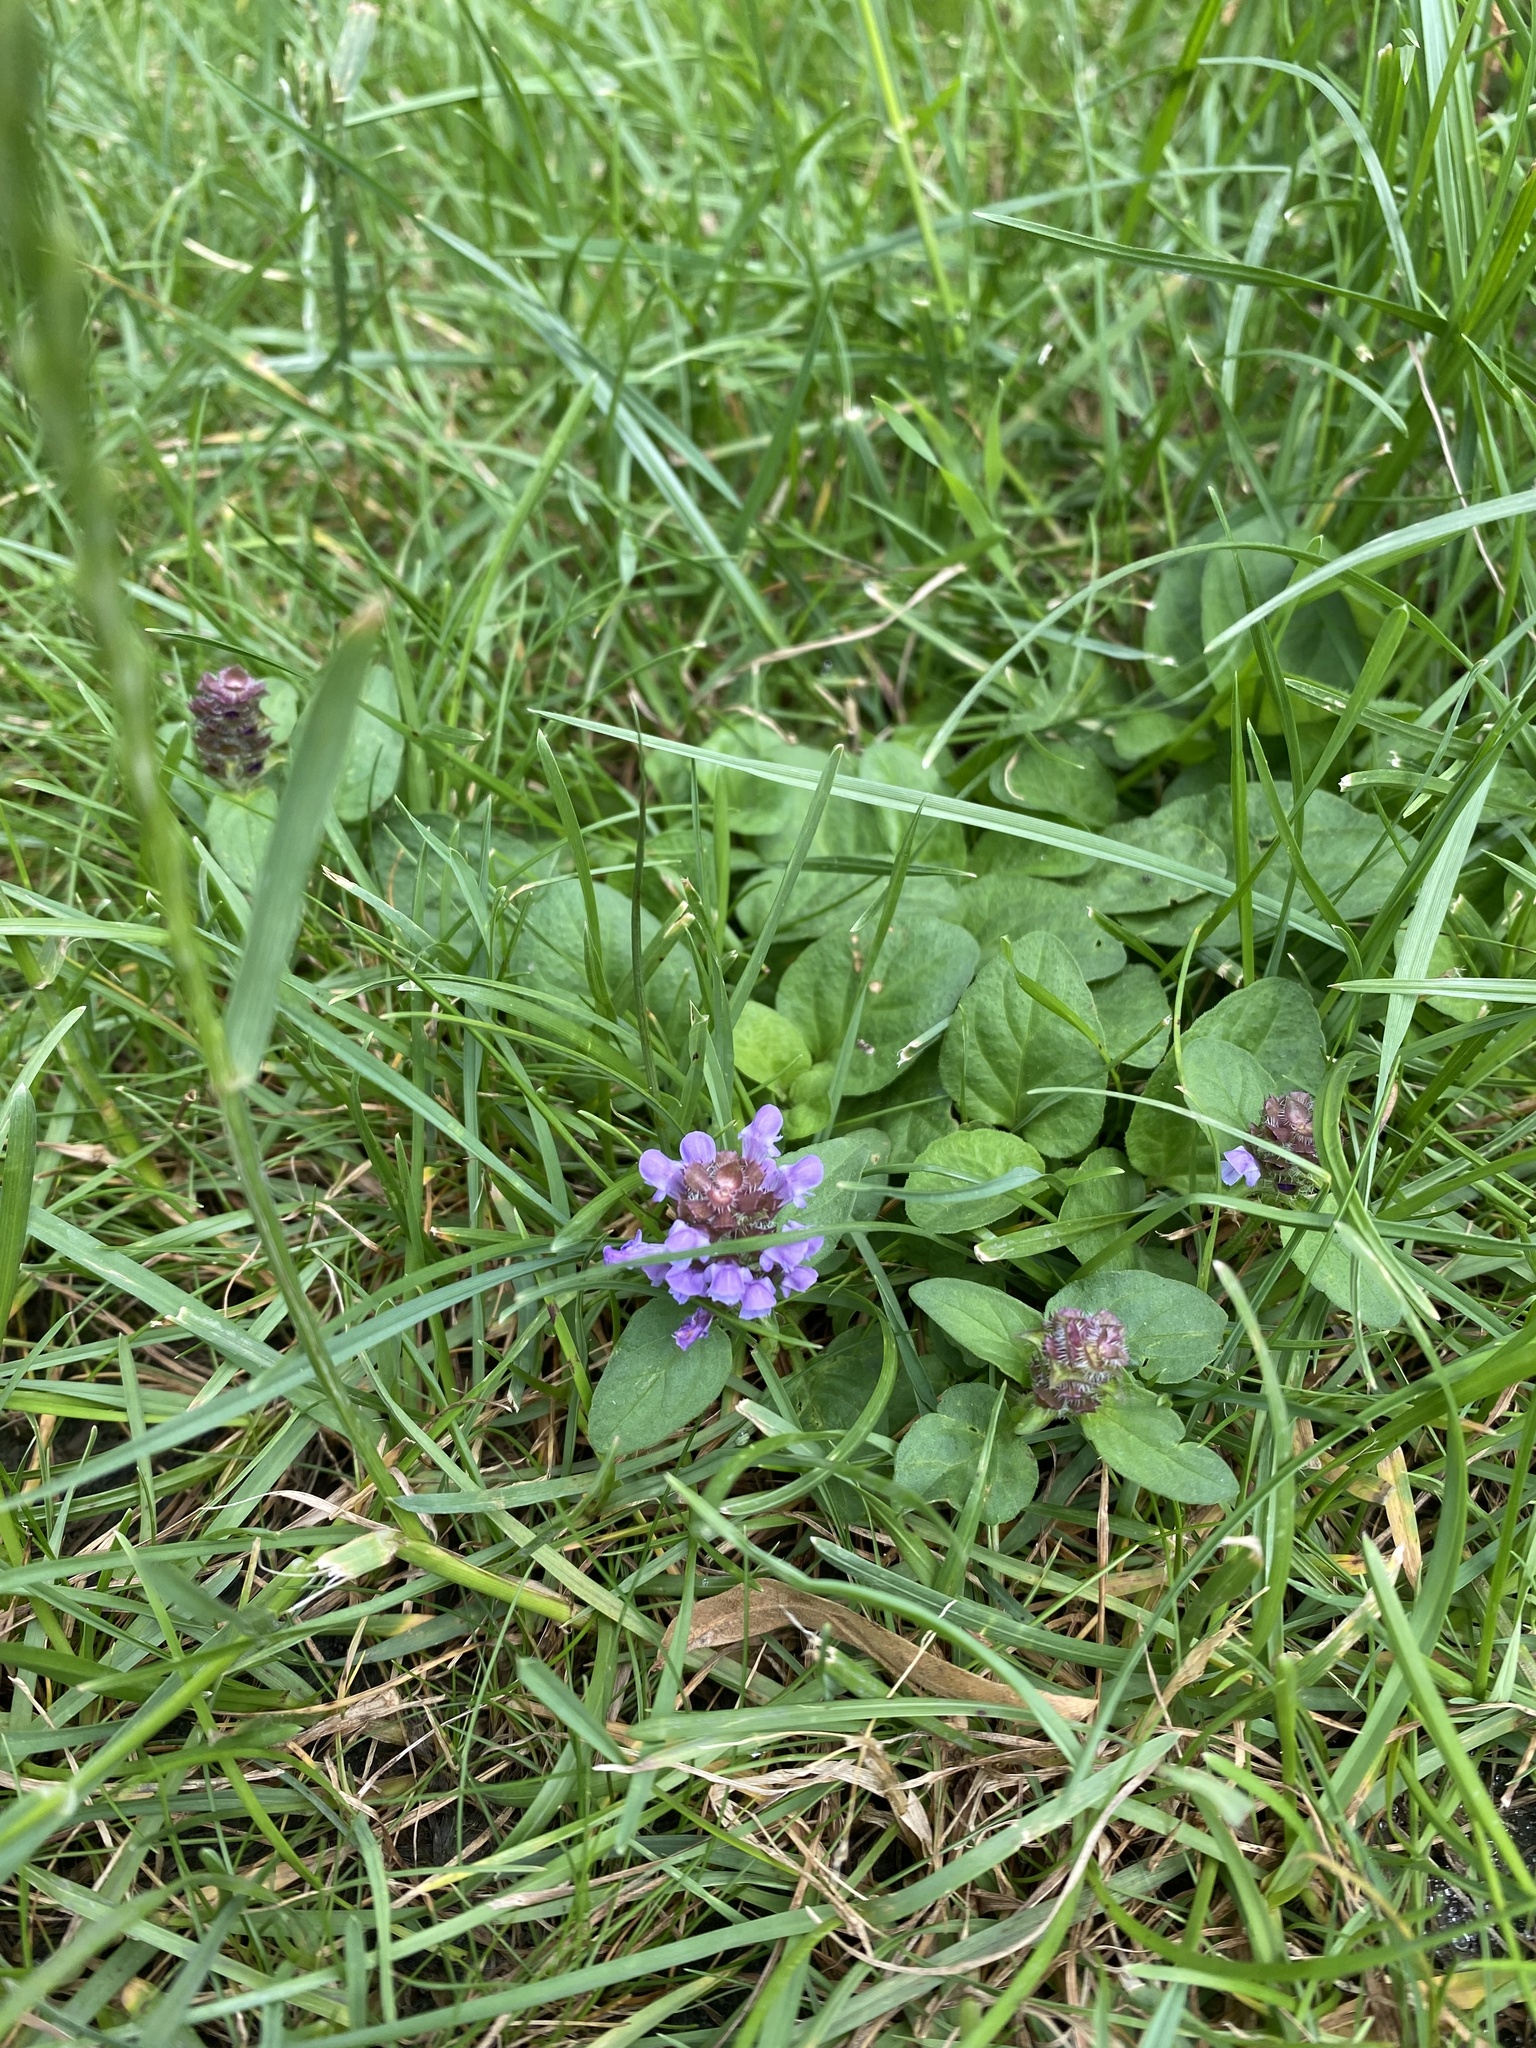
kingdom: Plantae
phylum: Tracheophyta
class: Magnoliopsida
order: Lamiales
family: Lamiaceae
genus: Prunella
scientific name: Prunella vulgaris
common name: Heal-all
